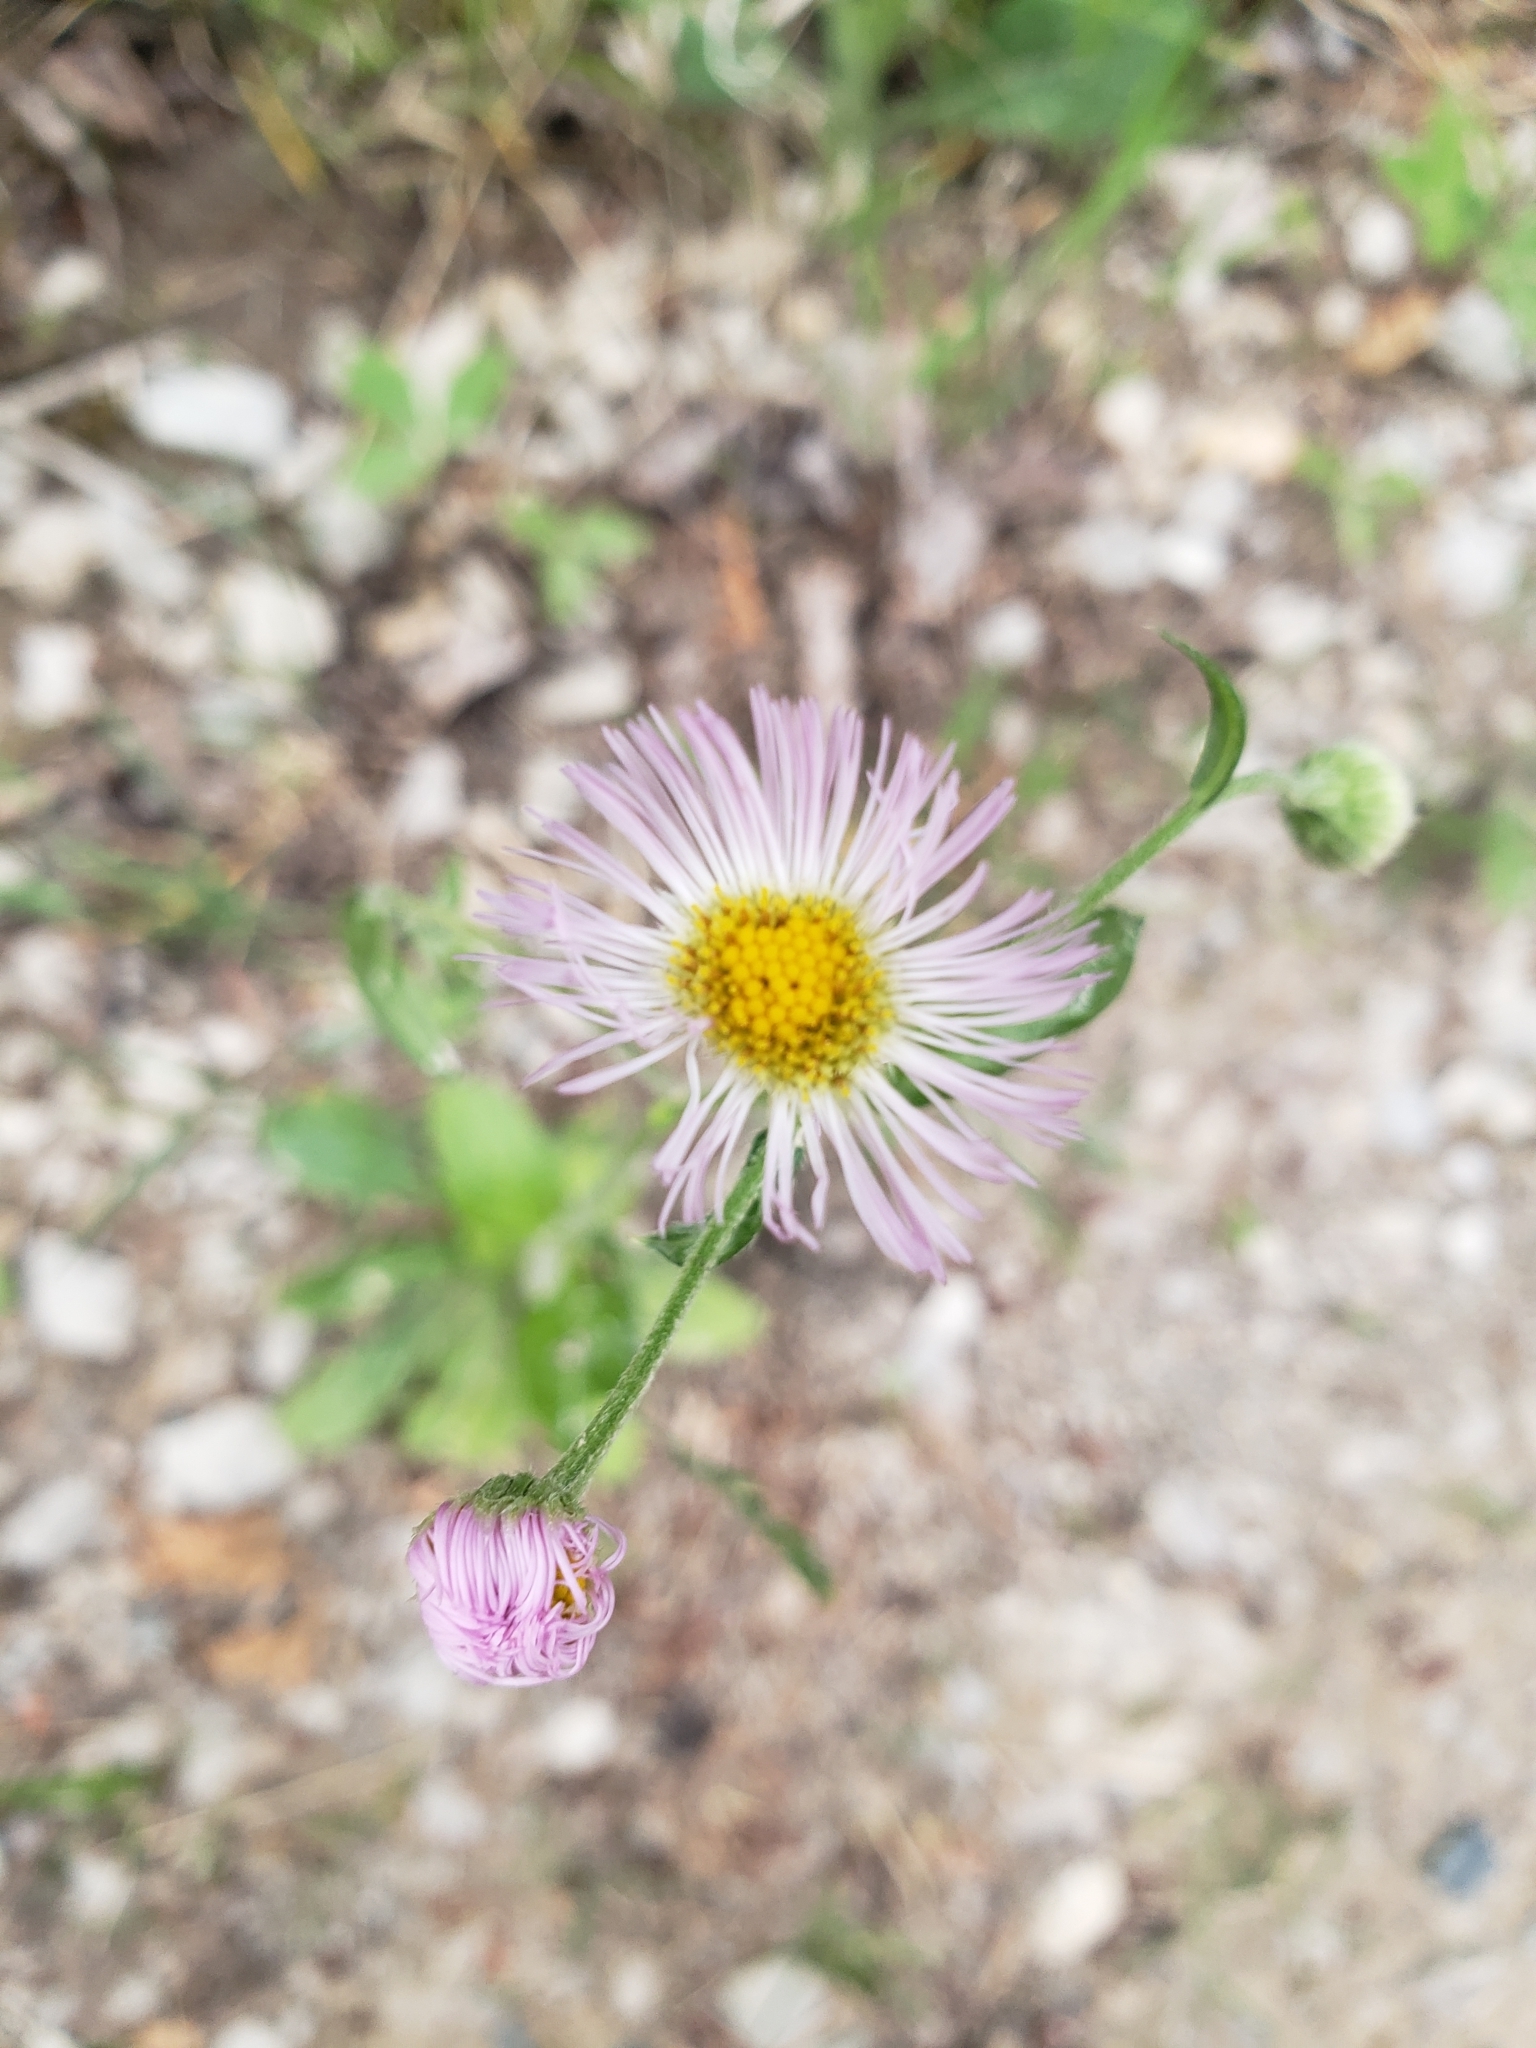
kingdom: Plantae
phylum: Tracheophyta
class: Magnoliopsida
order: Asterales
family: Asteraceae
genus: Erigeron
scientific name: Erigeron philadelphicus
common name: Robin's-plantain
